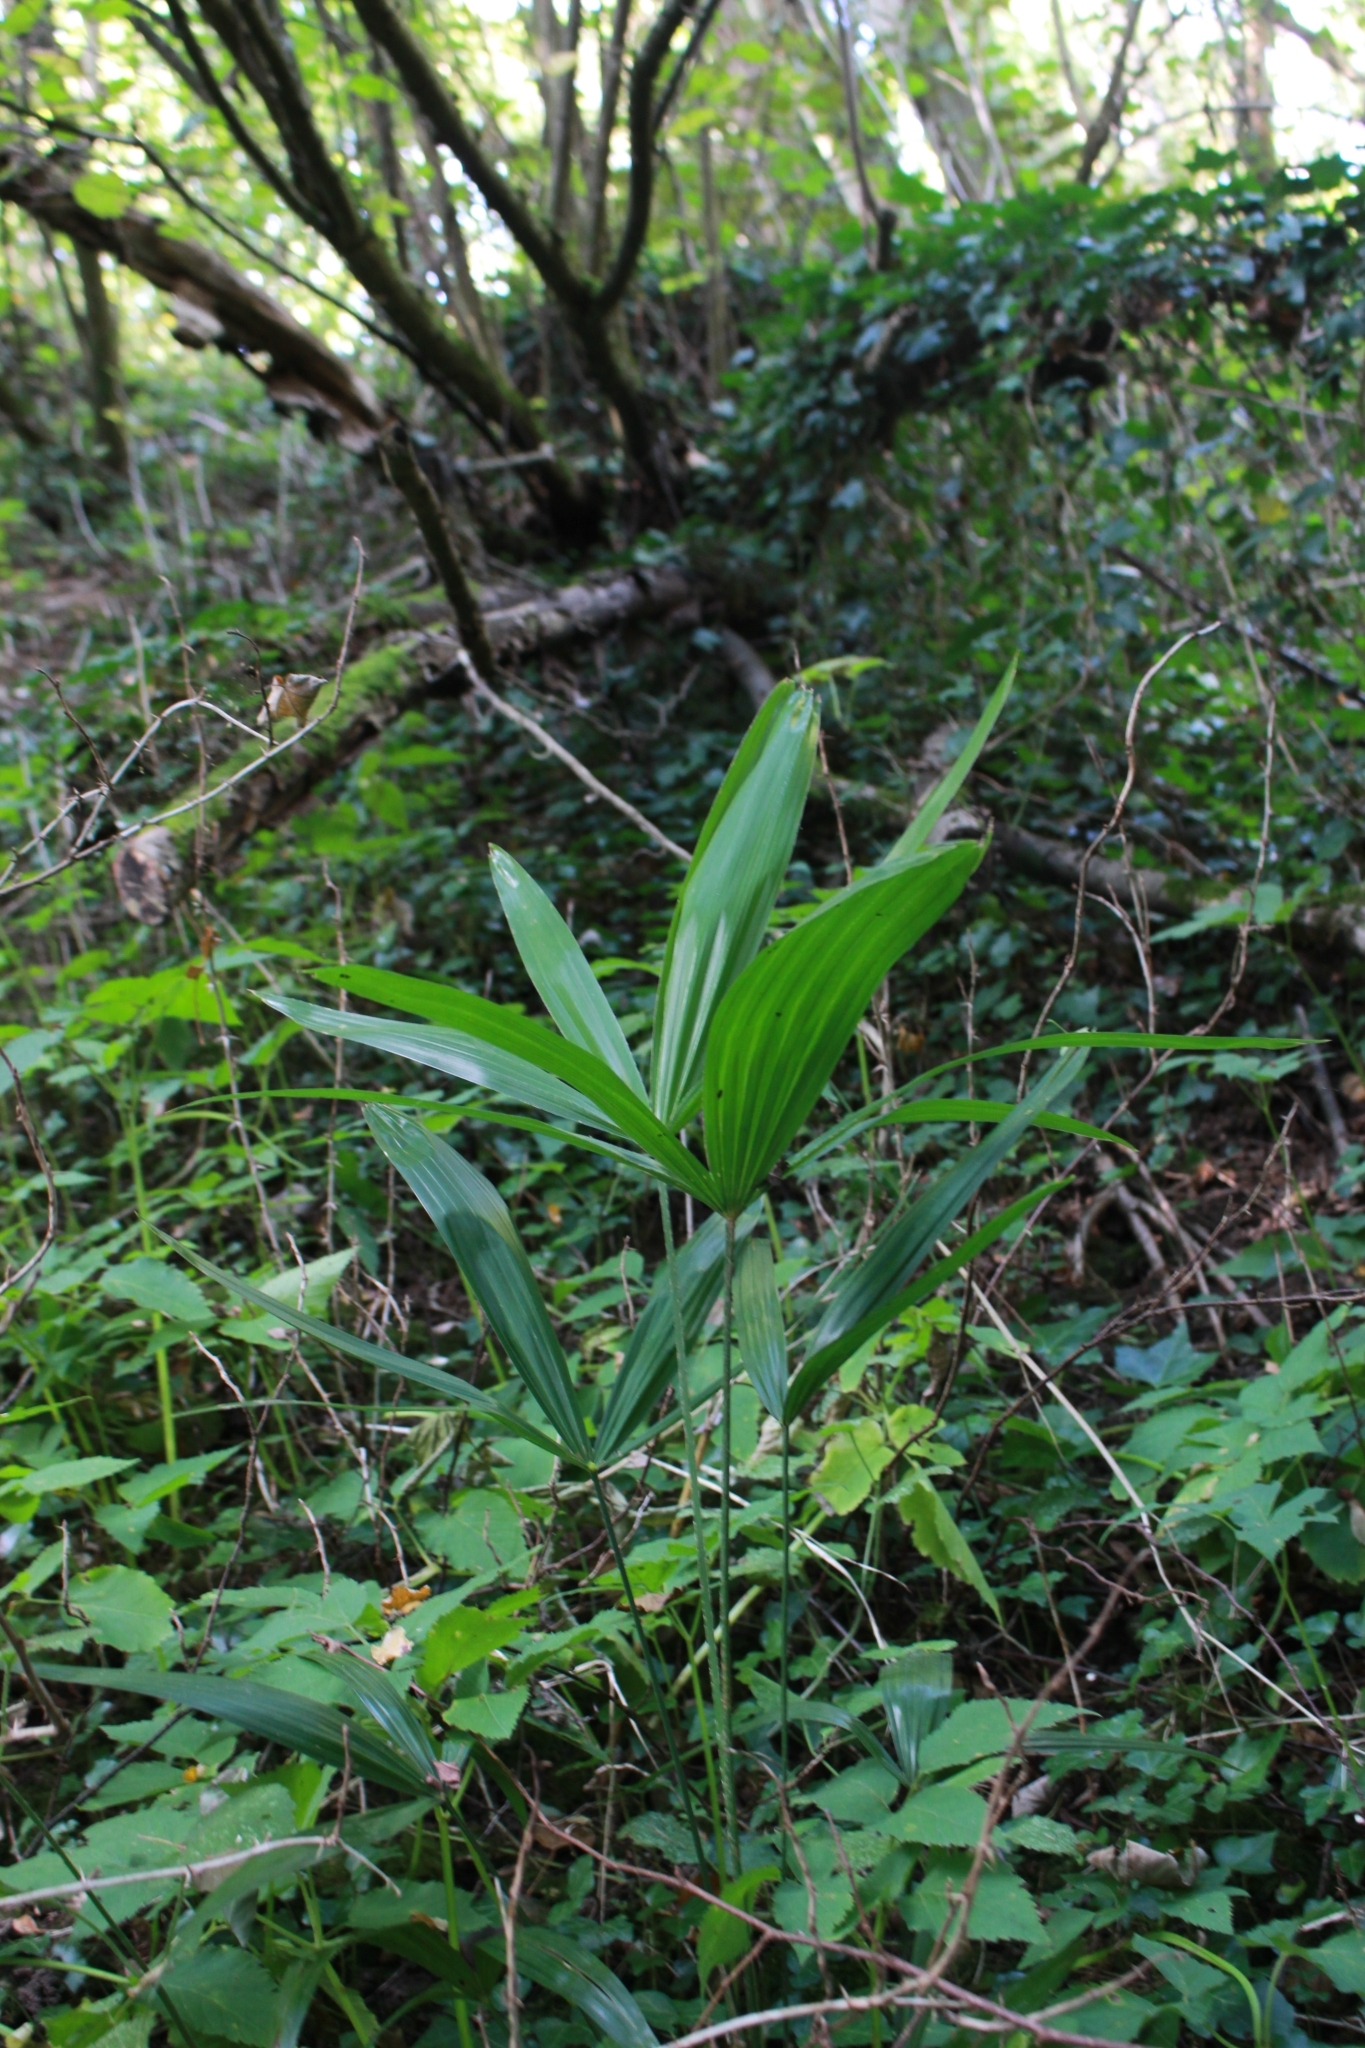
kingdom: Plantae
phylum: Tracheophyta
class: Liliopsida
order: Arecales
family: Arecaceae
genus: Trachycarpus
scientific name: Trachycarpus fortunei
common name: Chusan palm
